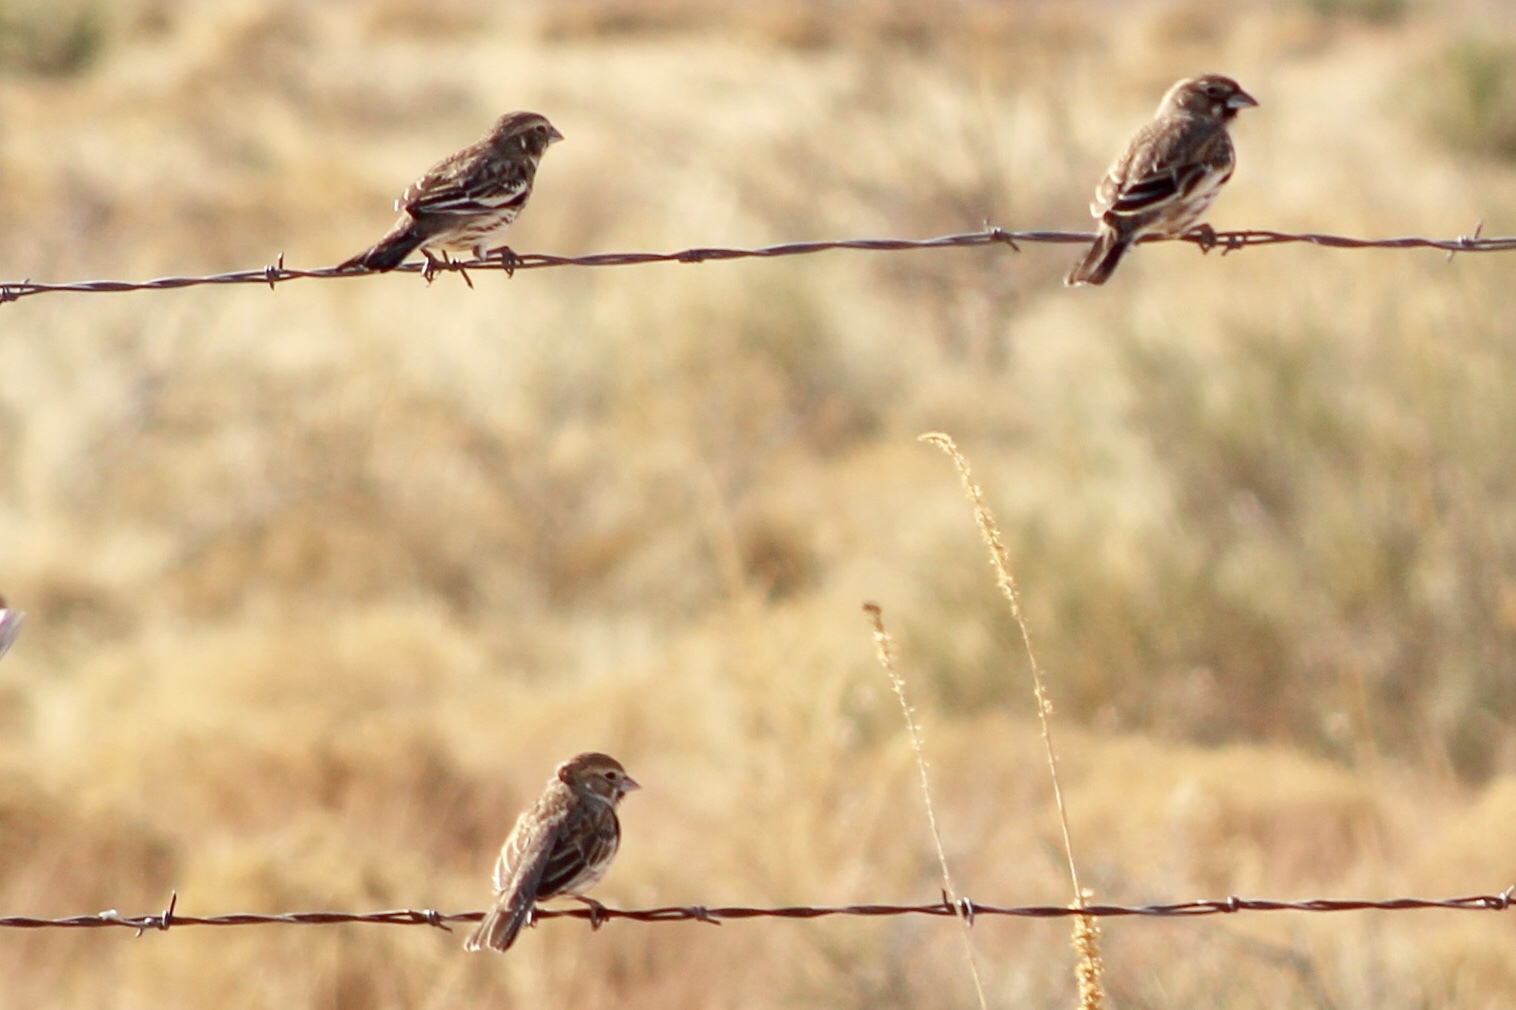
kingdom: Animalia
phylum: Chordata
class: Aves
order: Passeriformes
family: Passerellidae
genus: Calamospiza
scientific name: Calamospiza melanocorys
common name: Lark bunting
